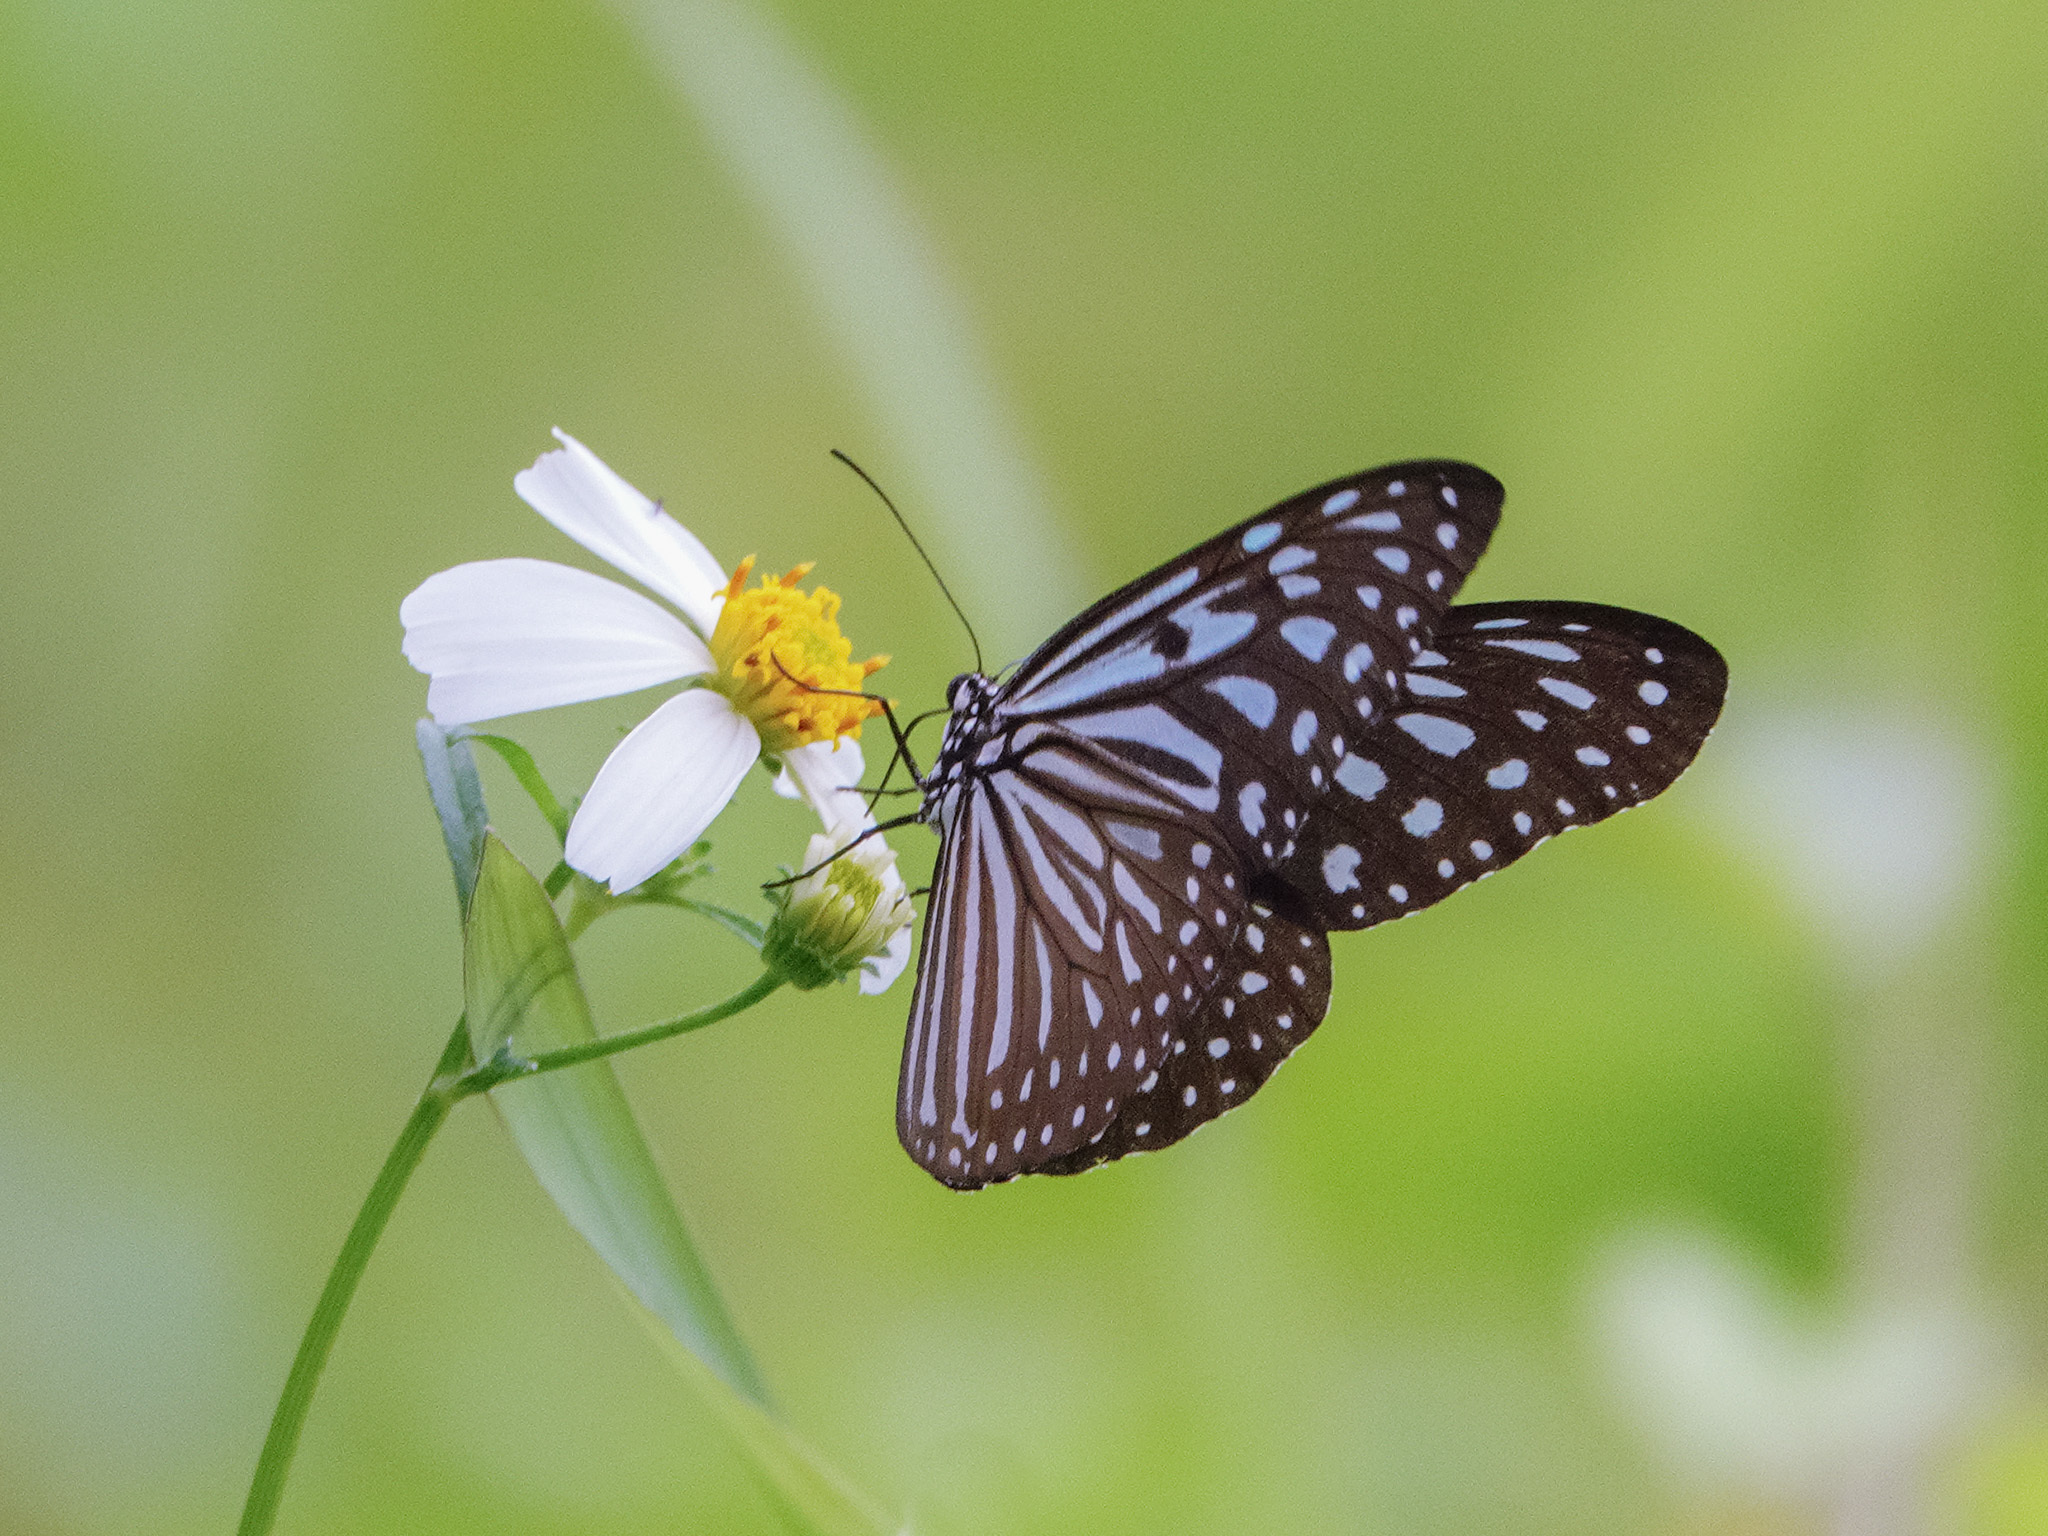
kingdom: Animalia
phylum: Arthropoda
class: Insecta
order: Lepidoptera
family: Nymphalidae
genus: Ideopsis
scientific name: Ideopsis vulgaris
